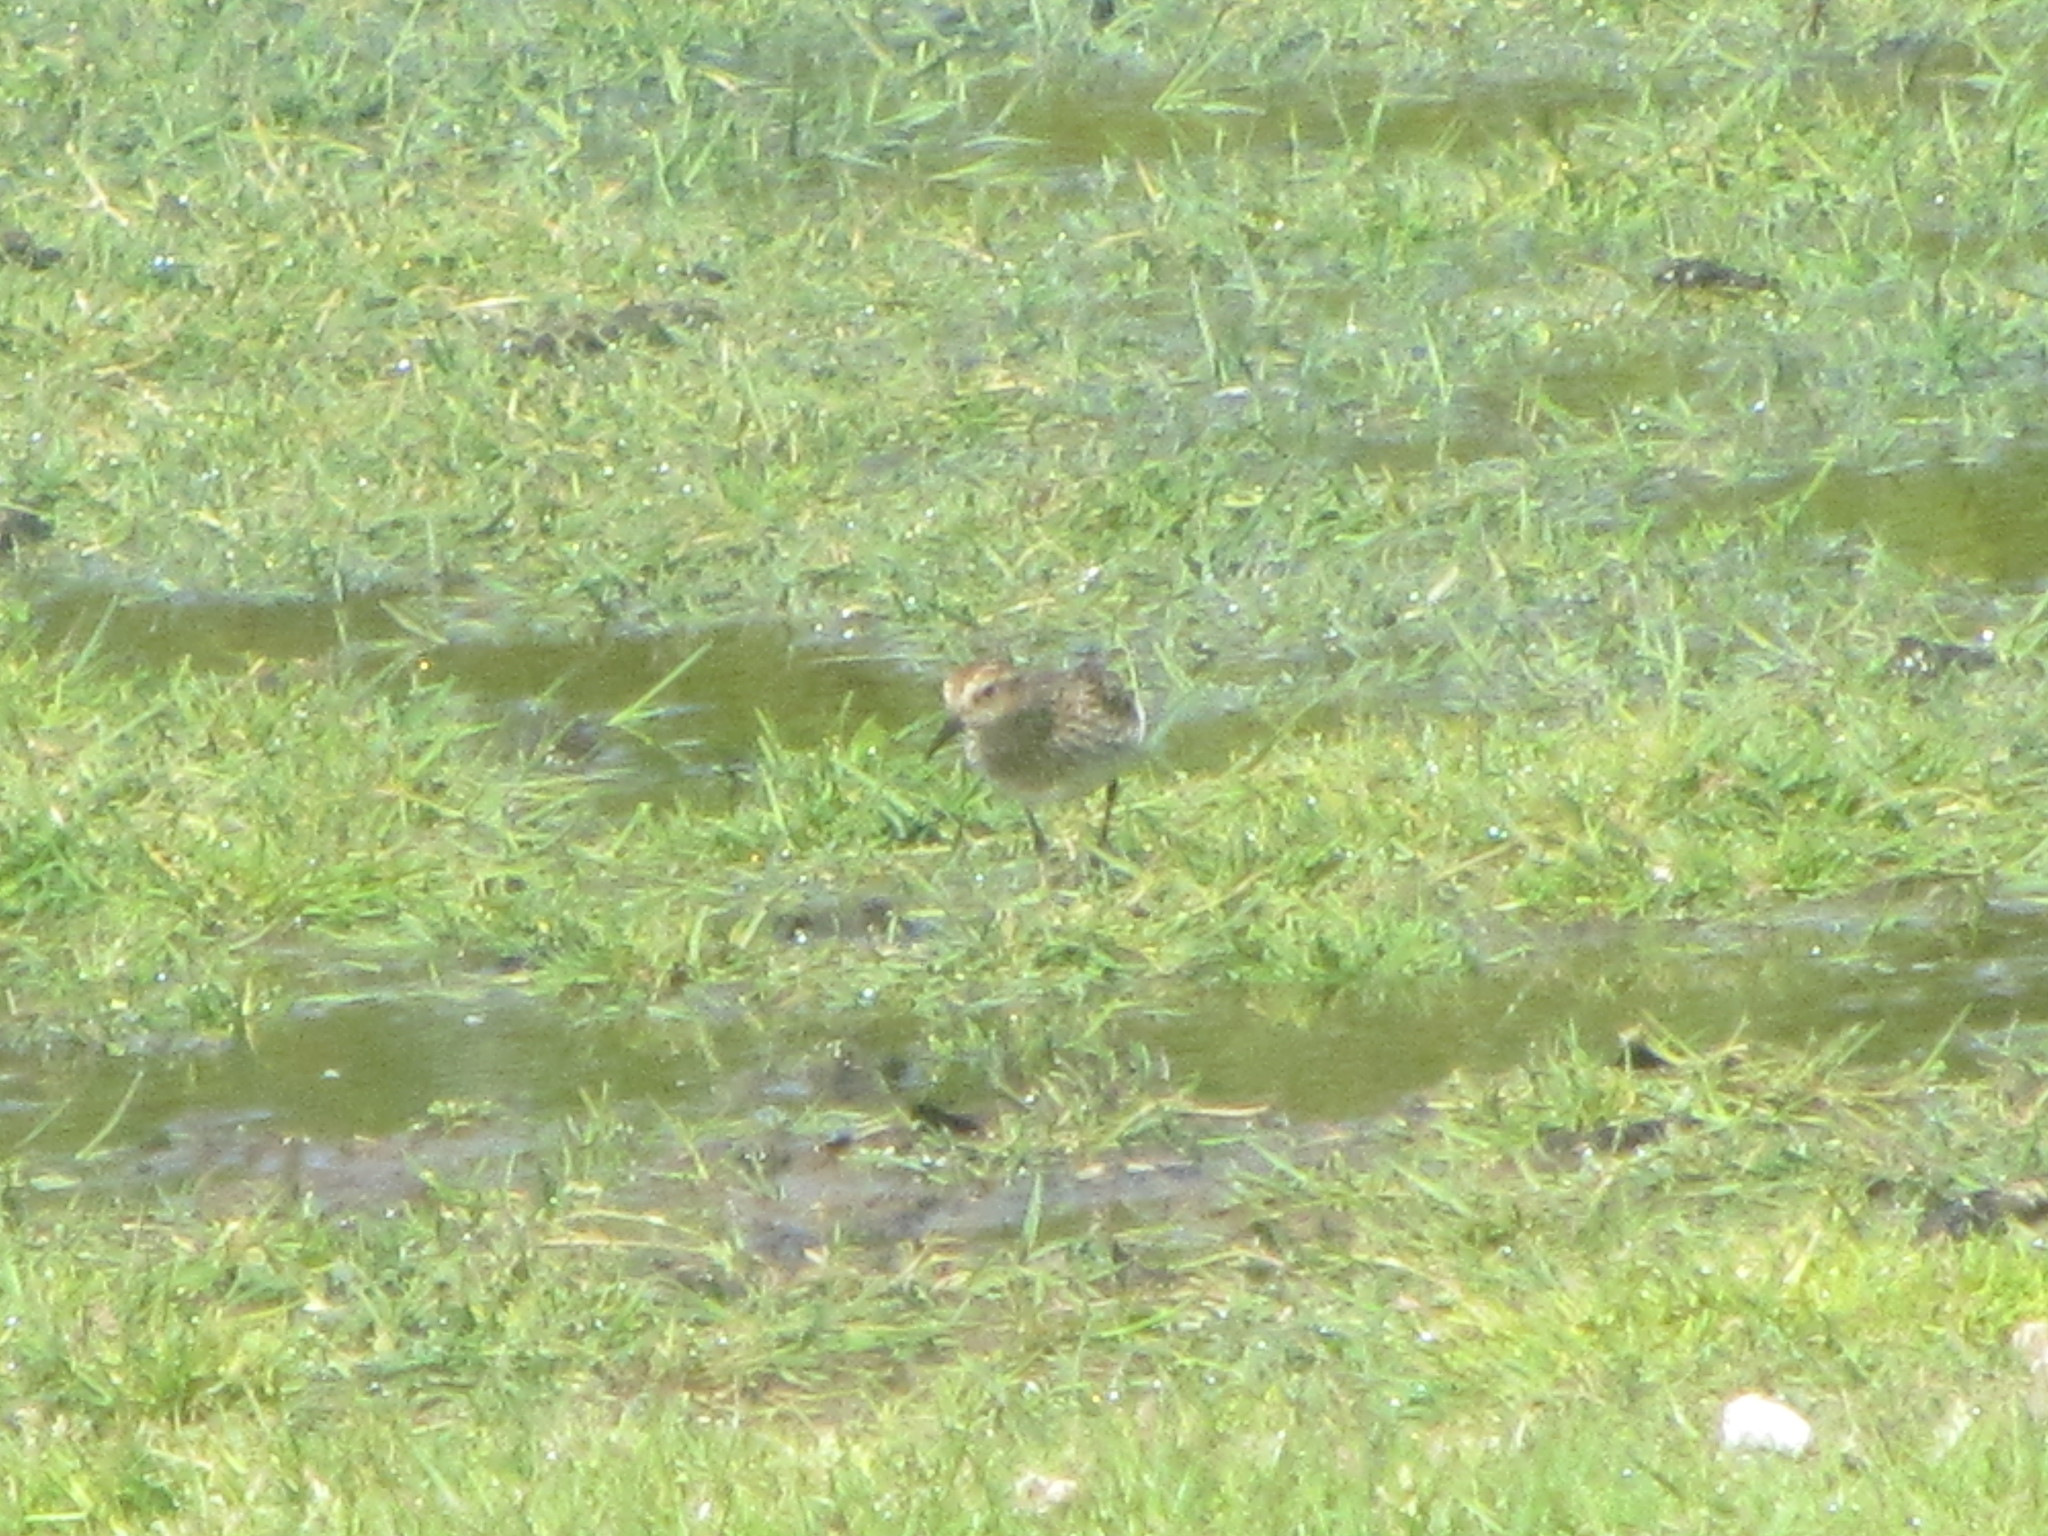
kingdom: Animalia
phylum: Chordata
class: Aves
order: Charadriiformes
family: Scolopacidae
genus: Calidris
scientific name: Calidris minutilla
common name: Least sandpiper
